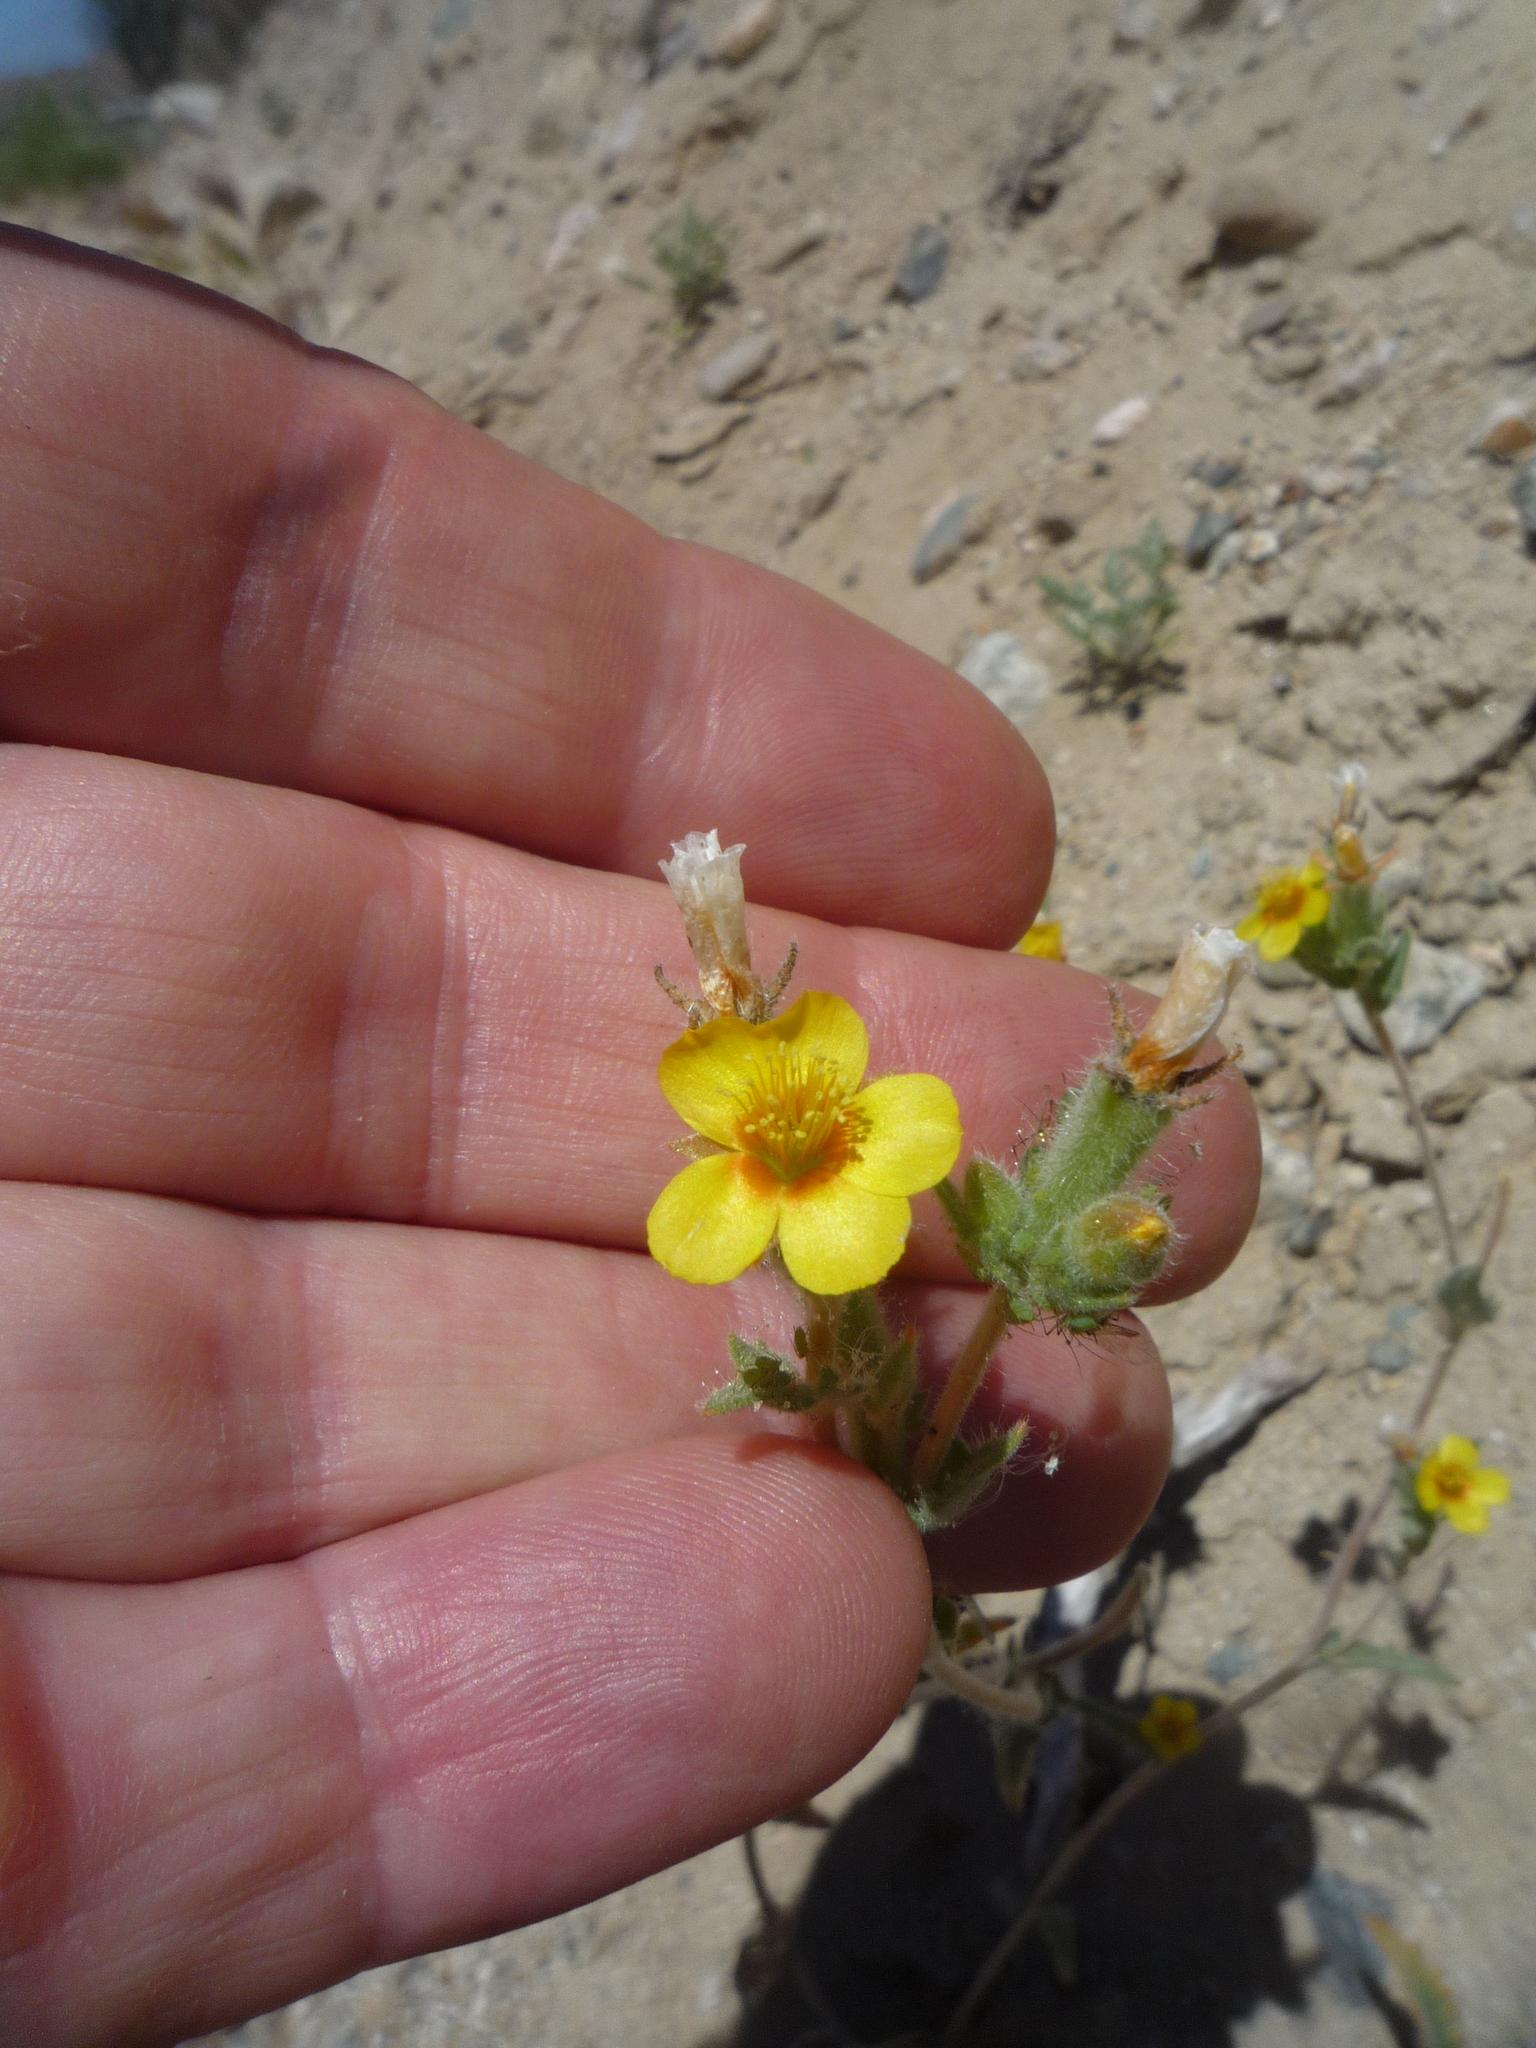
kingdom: Plantae
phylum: Tracheophyta
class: Magnoliopsida
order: Cornales
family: Loasaceae
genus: Mentzelia
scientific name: Mentzelia congesta
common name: Ventana blazingstar
